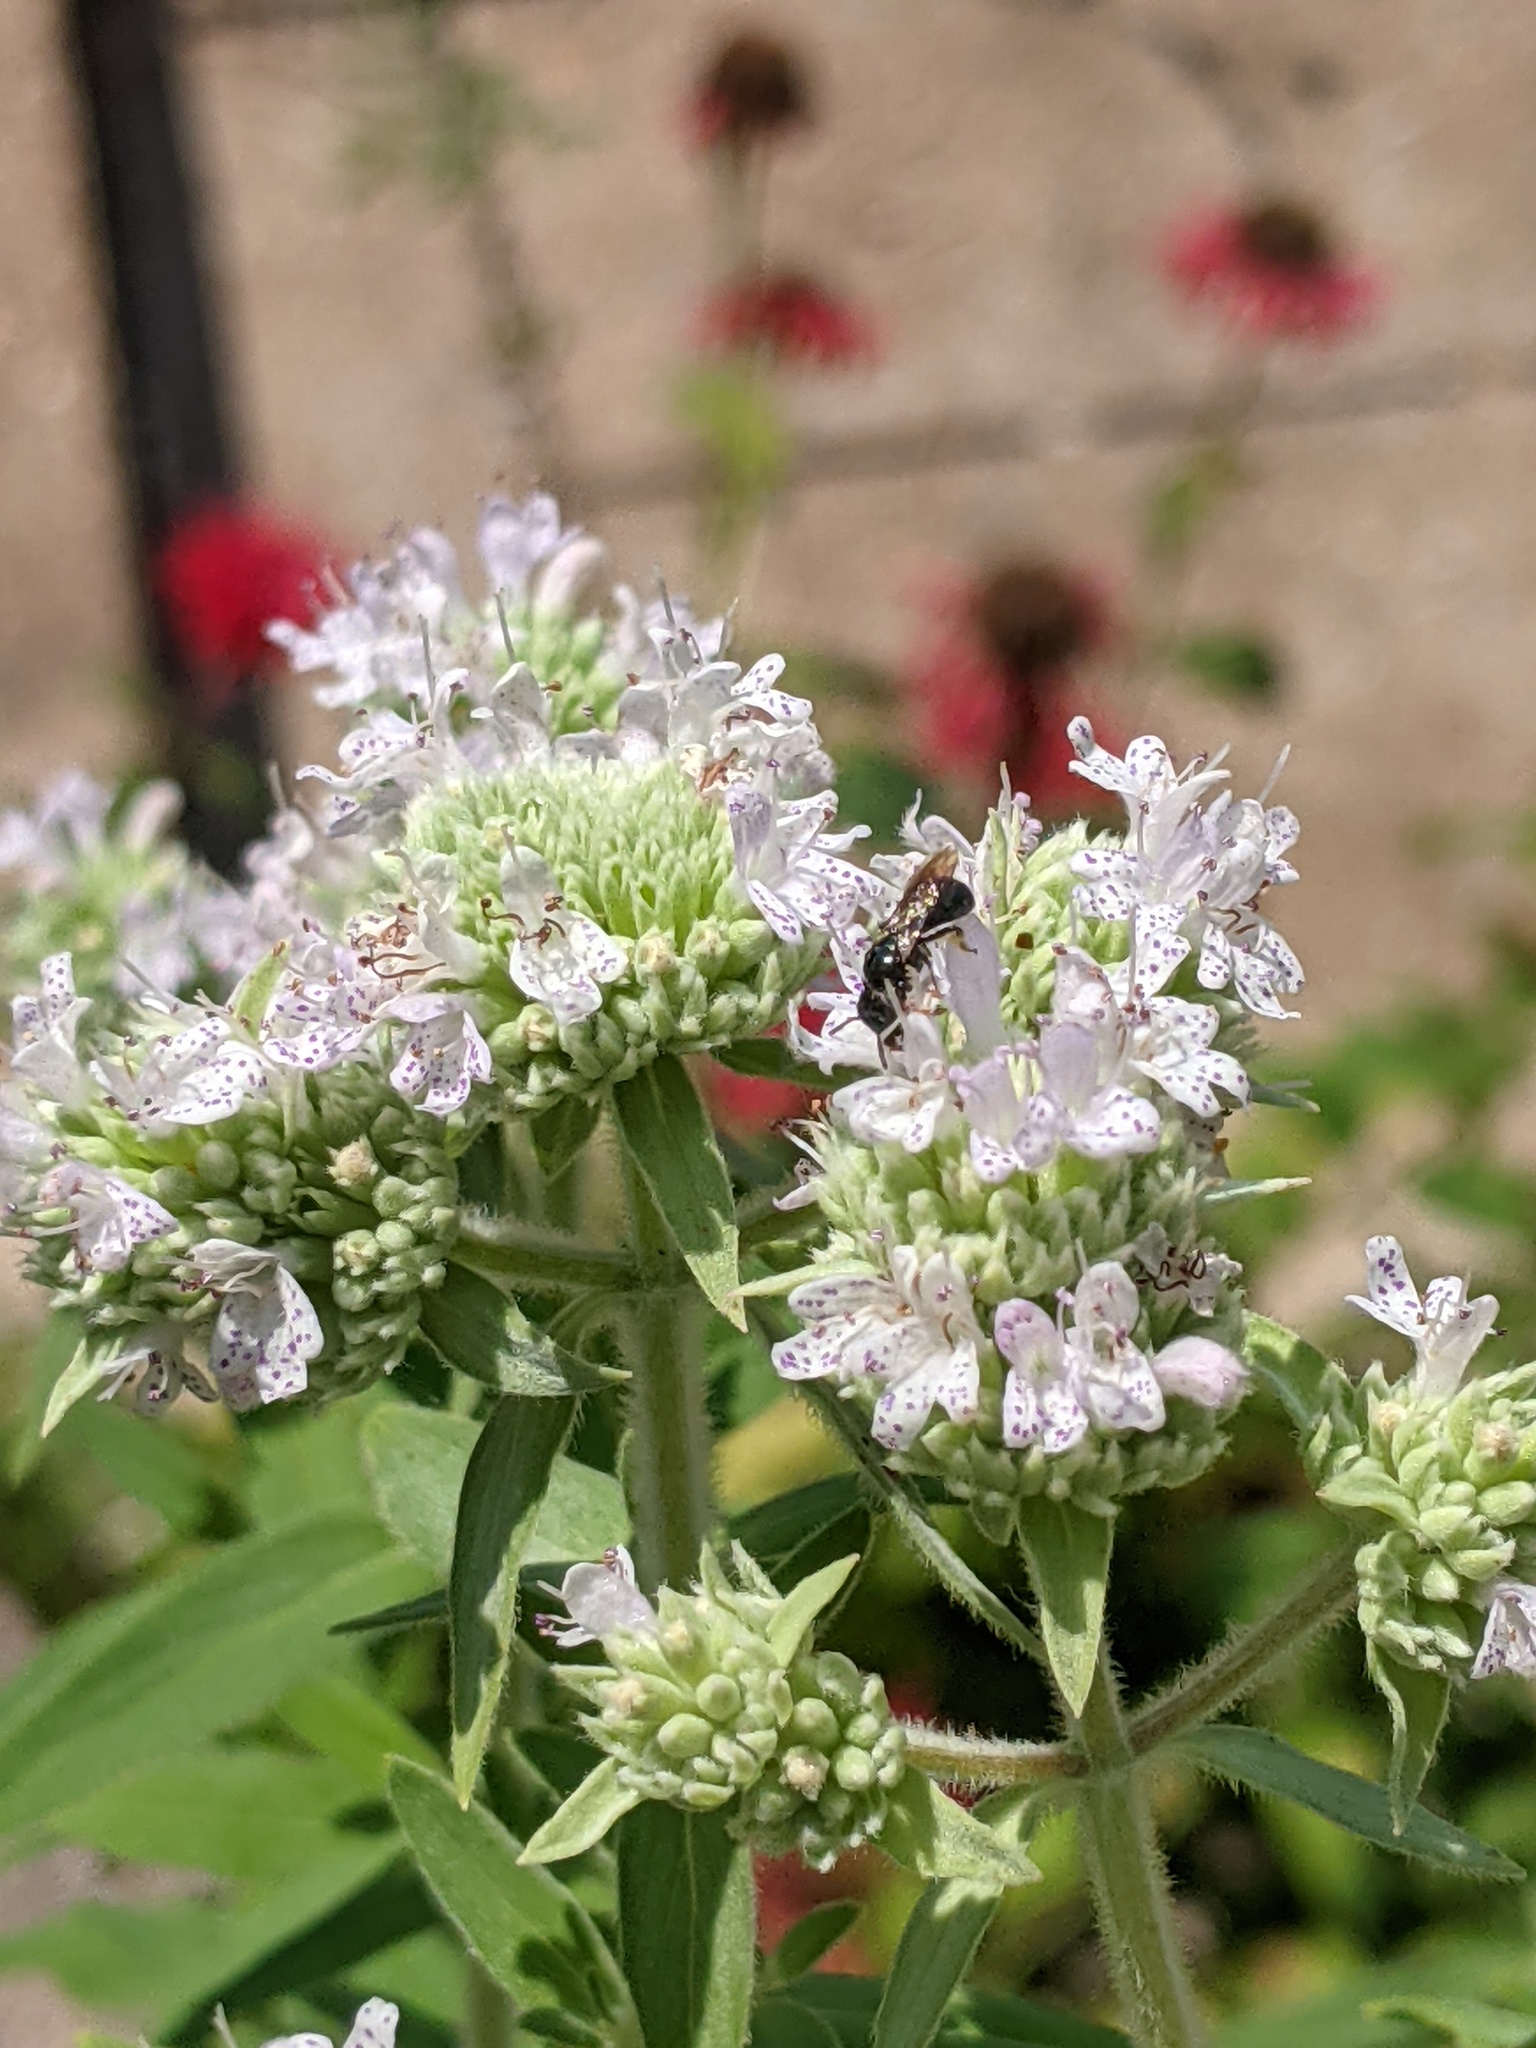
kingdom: Animalia
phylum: Arthropoda
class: Insecta
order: Hymenoptera
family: Apidae
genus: Zadontomerus
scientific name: Zadontomerus
